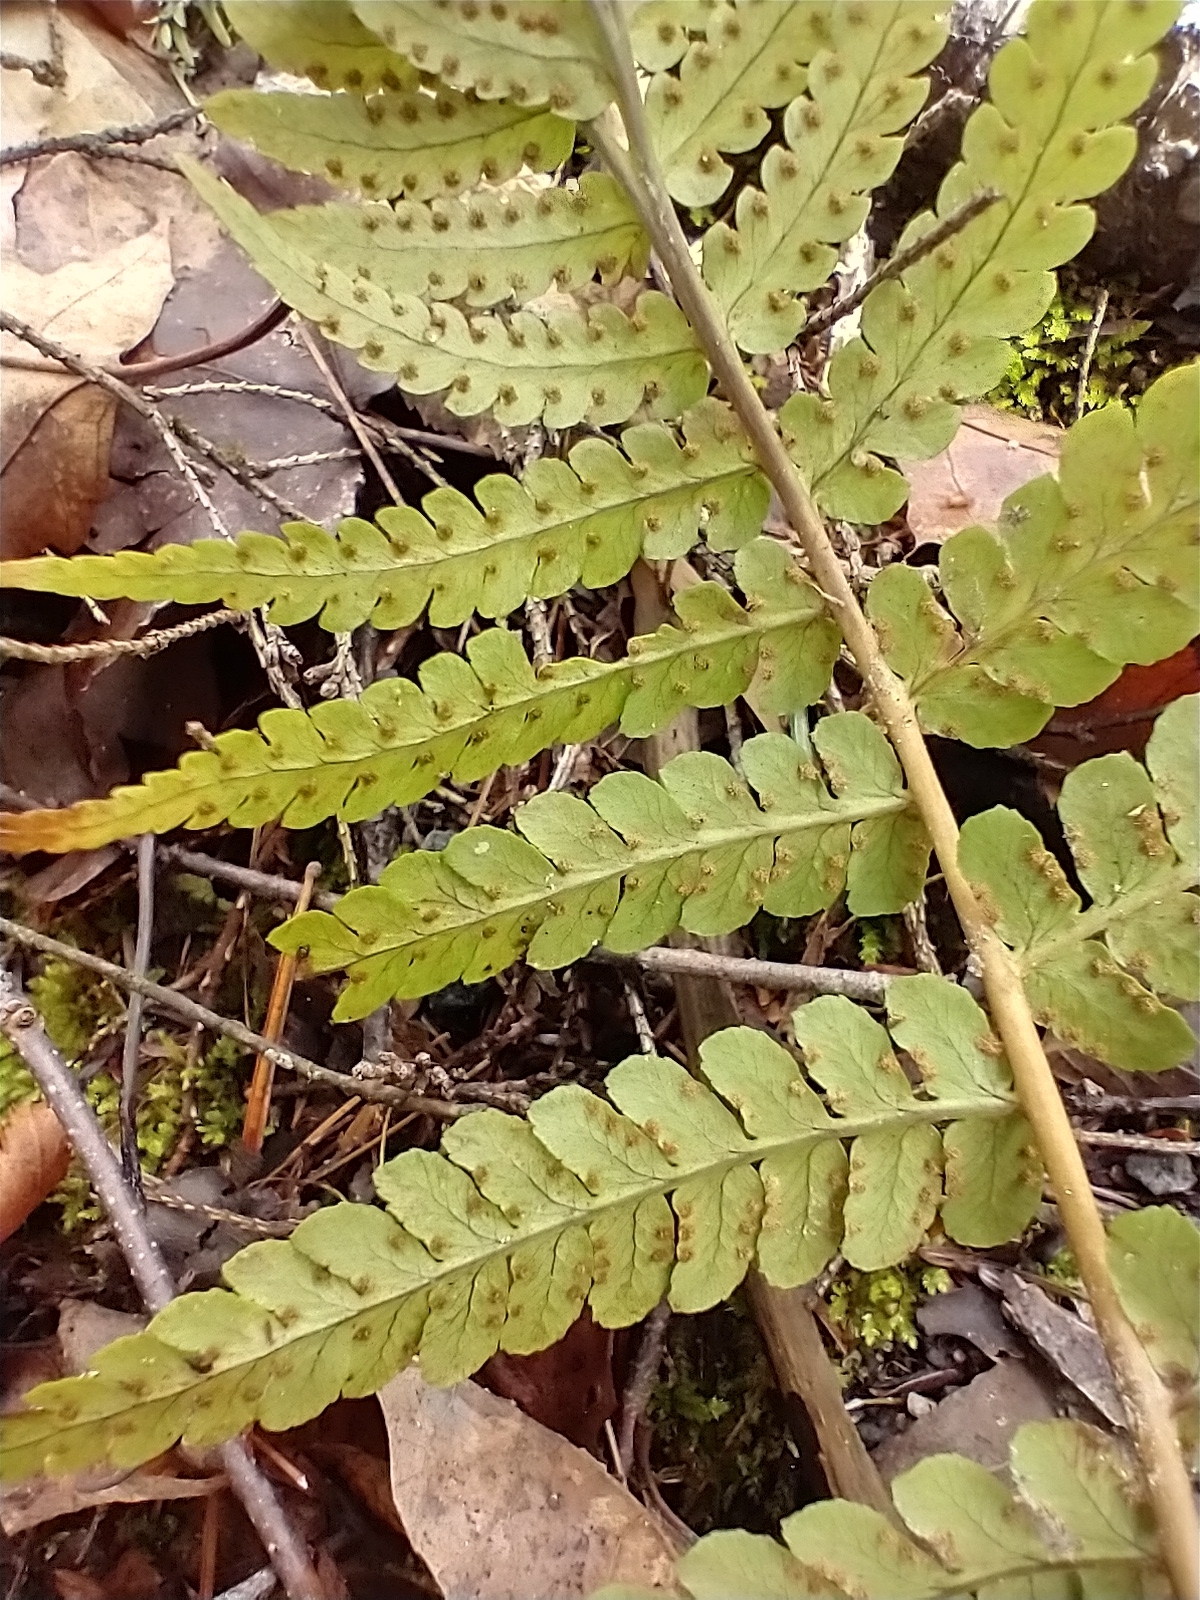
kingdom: Plantae
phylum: Tracheophyta
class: Polypodiopsida
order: Polypodiales
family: Dryopteridaceae
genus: Dryopteris
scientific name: Dryopteris marginalis
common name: Marginal wood fern
